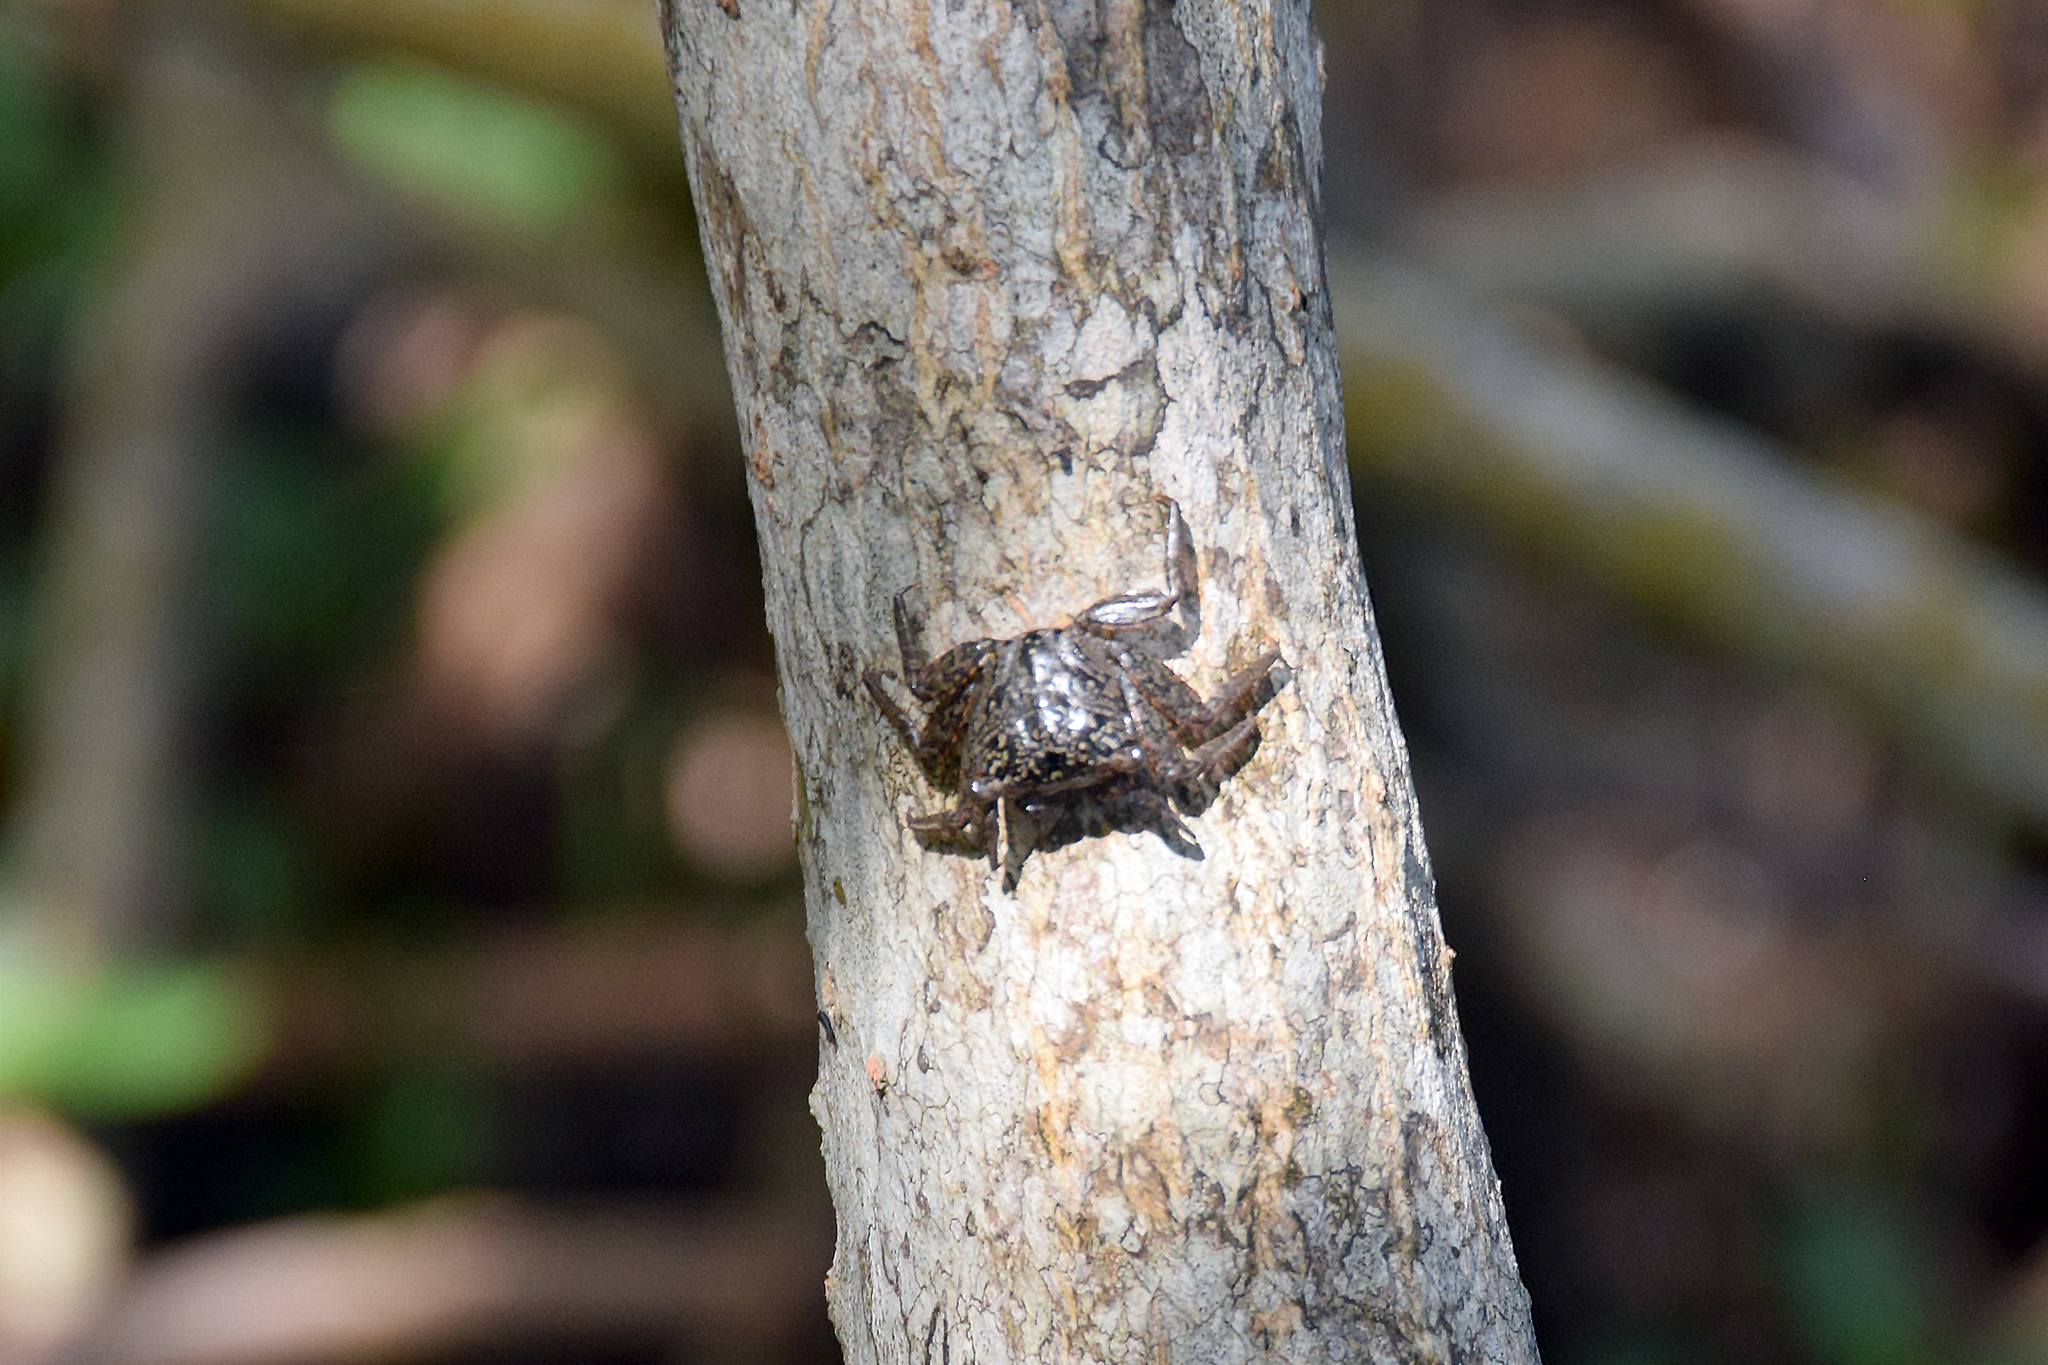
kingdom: Animalia
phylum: Arthropoda
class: Malacostraca
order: Decapoda
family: Sesarmidae
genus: Aratus
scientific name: Aratus pisonii
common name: Mangrove crab
